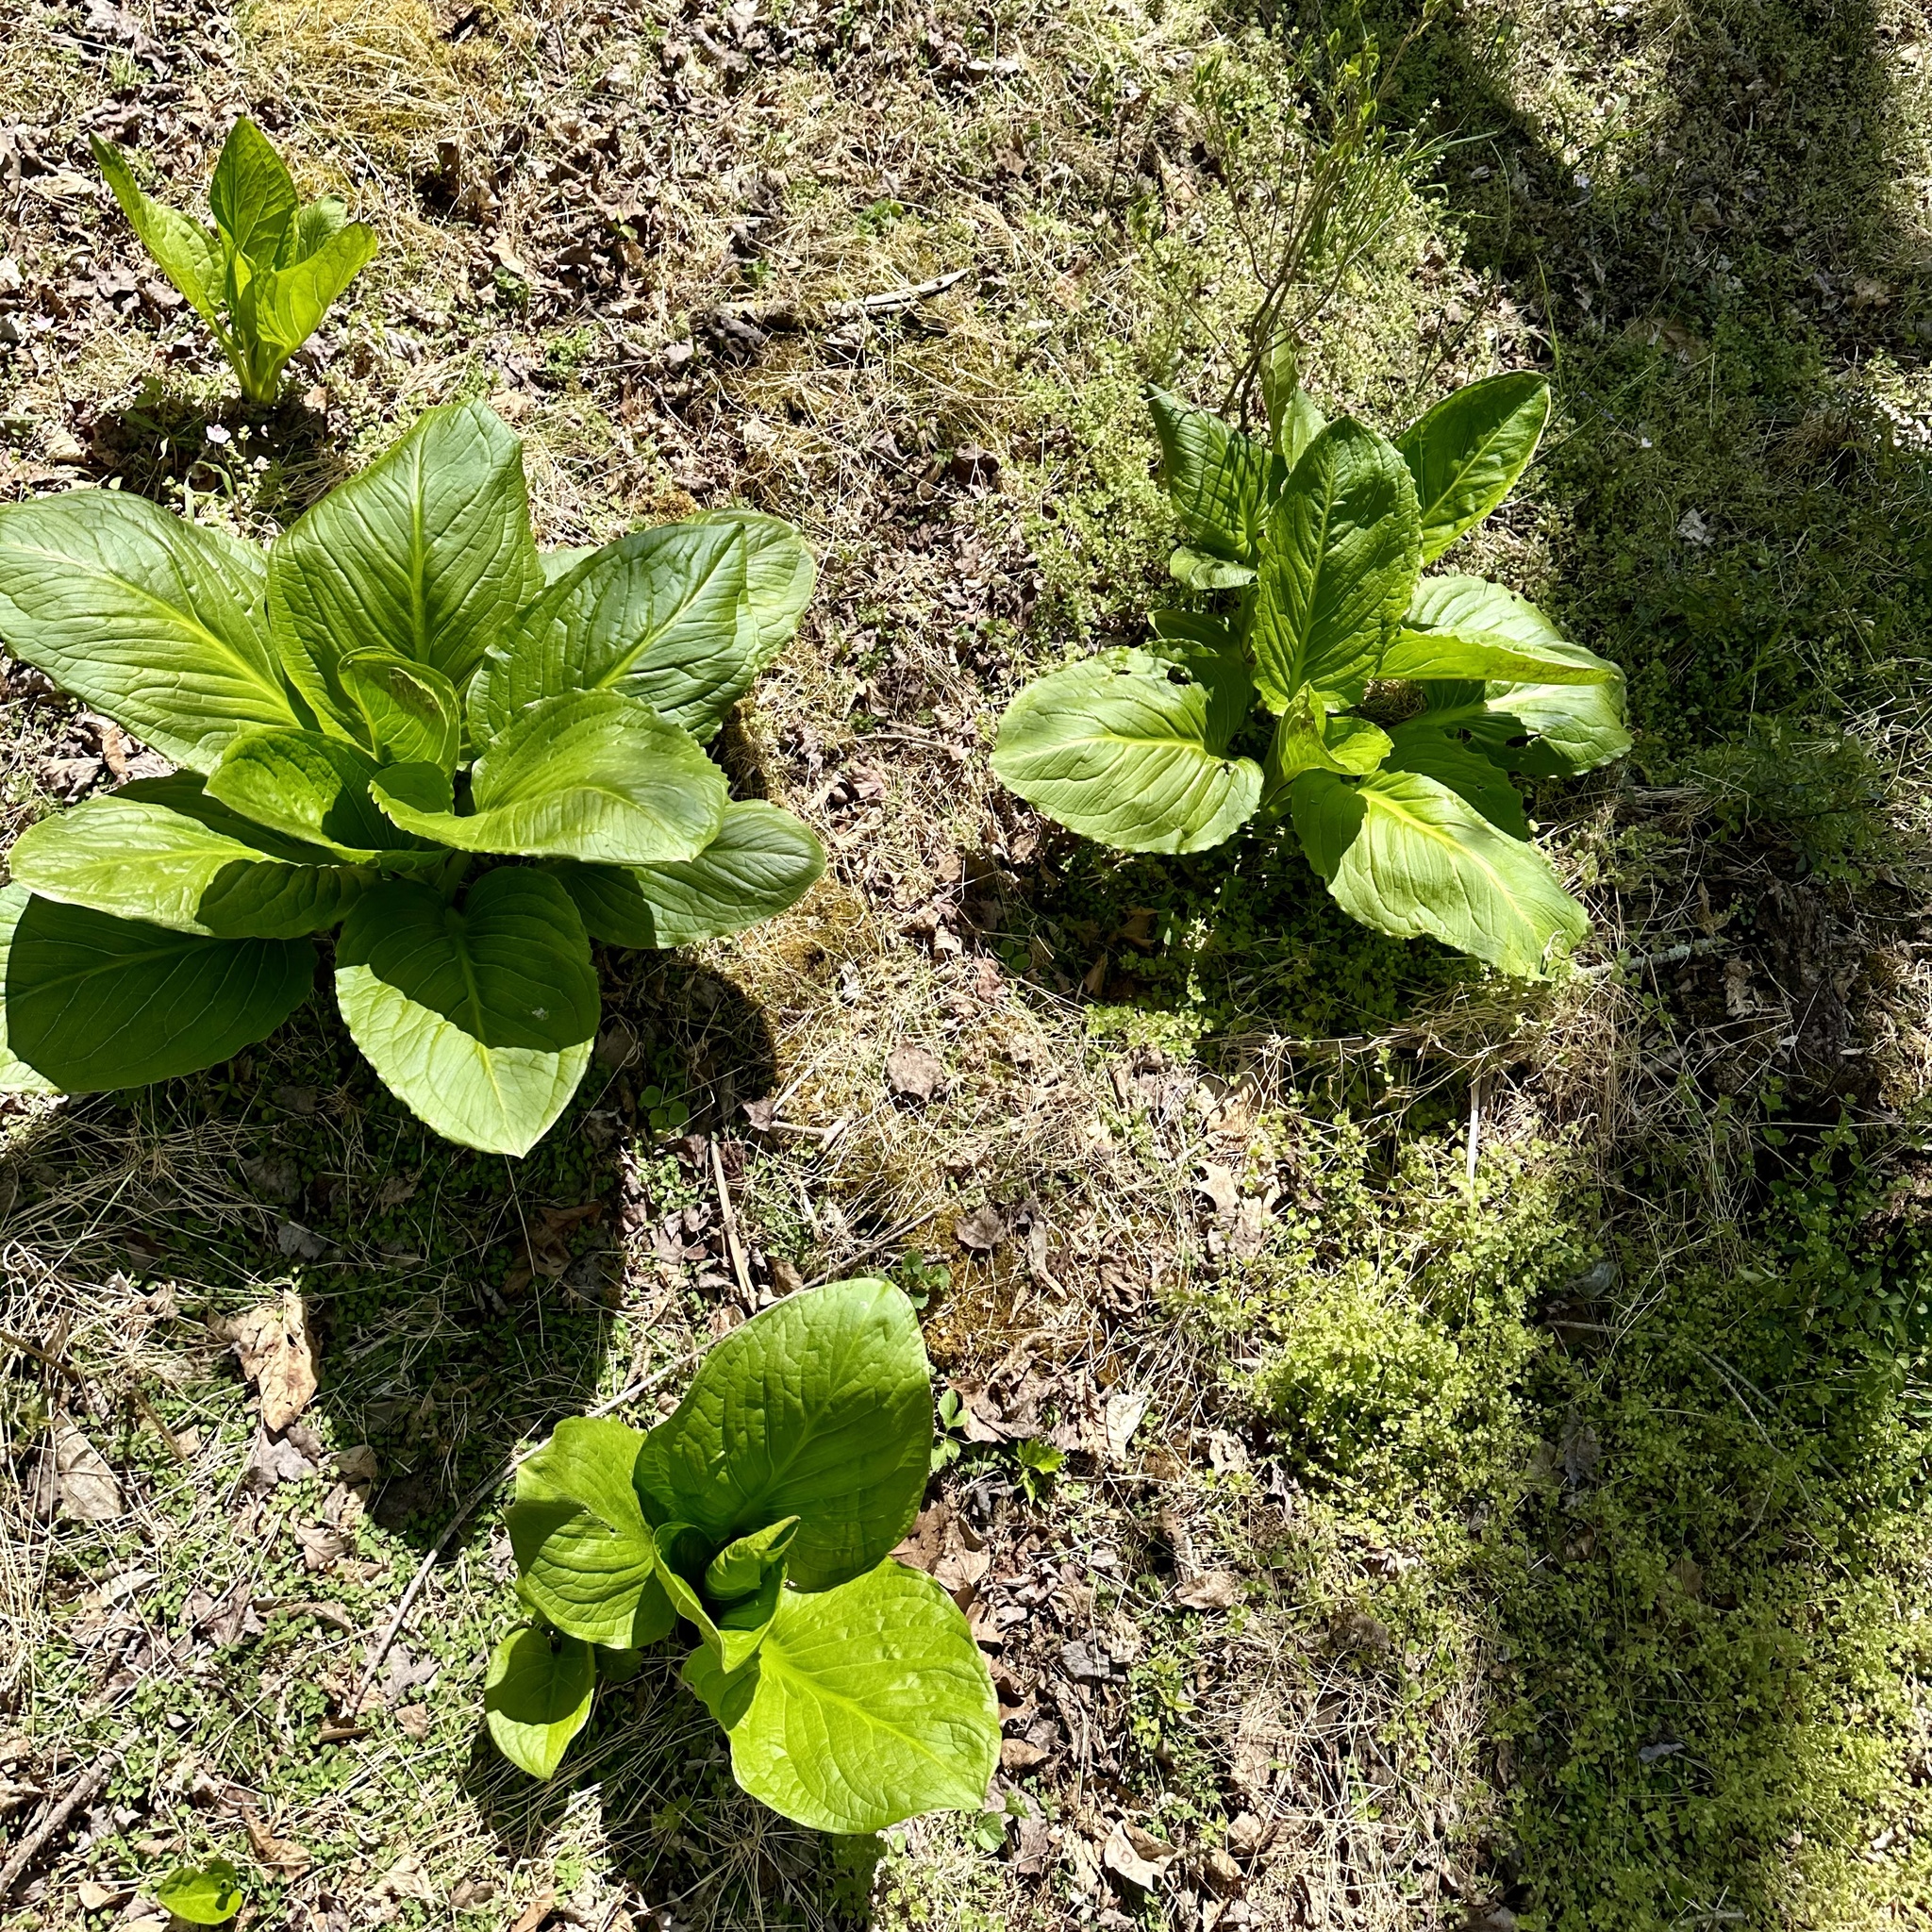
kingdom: Plantae
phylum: Tracheophyta
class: Liliopsida
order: Alismatales
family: Araceae
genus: Symplocarpus
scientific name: Symplocarpus foetidus
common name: Eastern skunk cabbage
